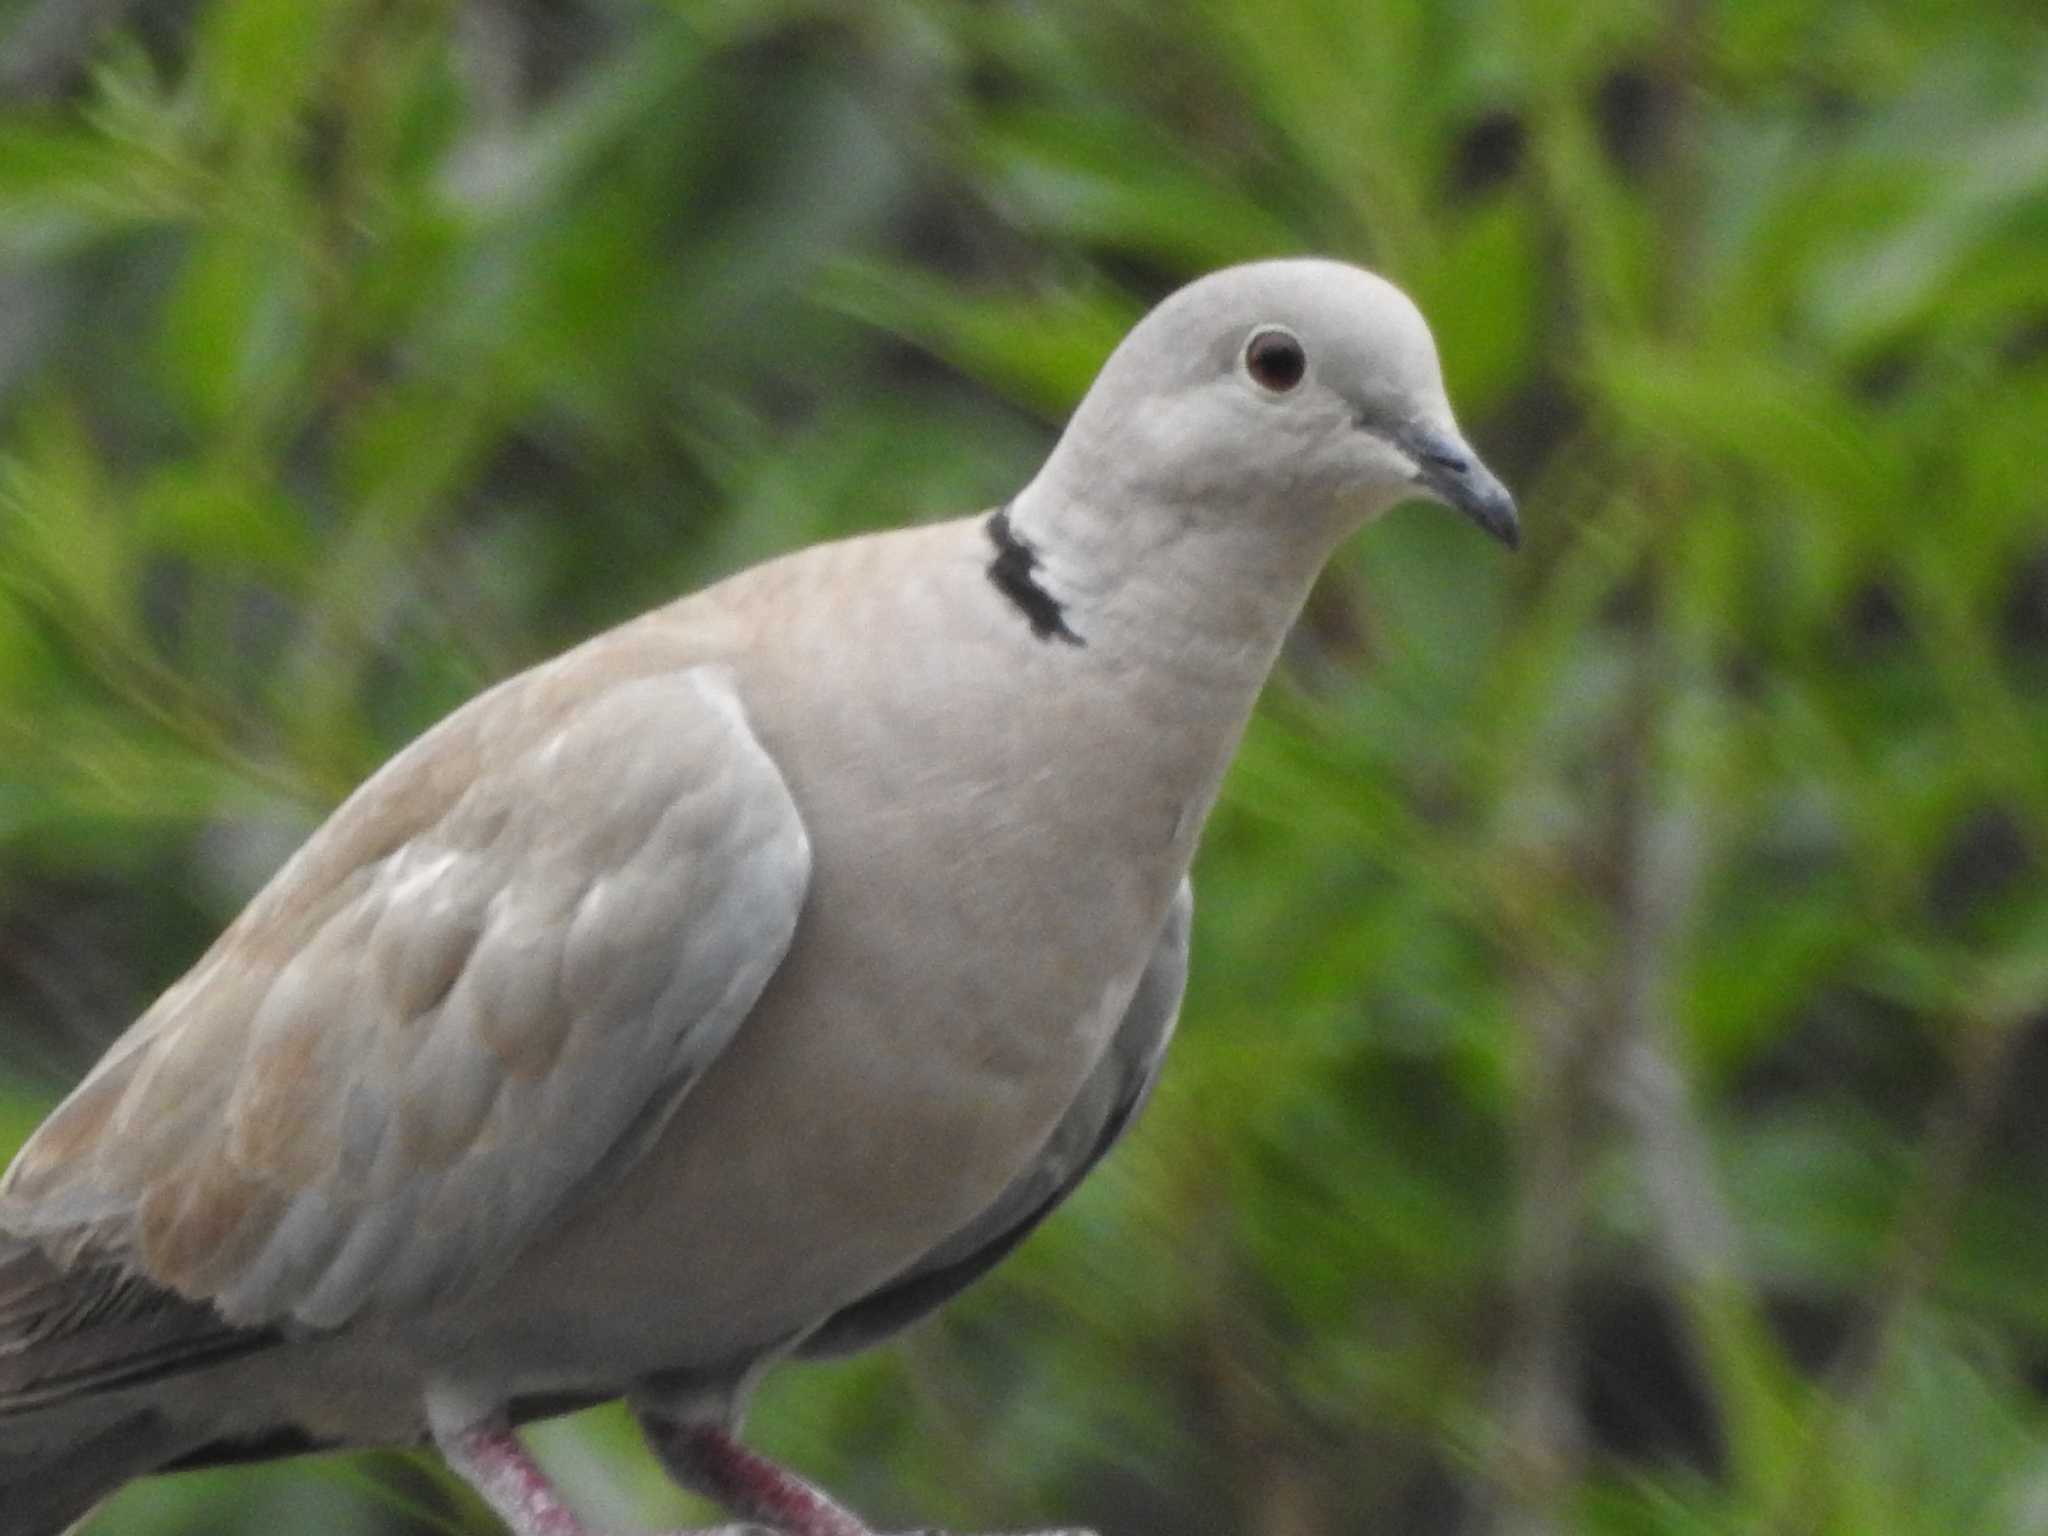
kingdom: Animalia
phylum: Chordata
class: Aves
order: Columbiformes
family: Columbidae
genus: Streptopelia
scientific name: Streptopelia decaocto
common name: Eurasian collared dove
